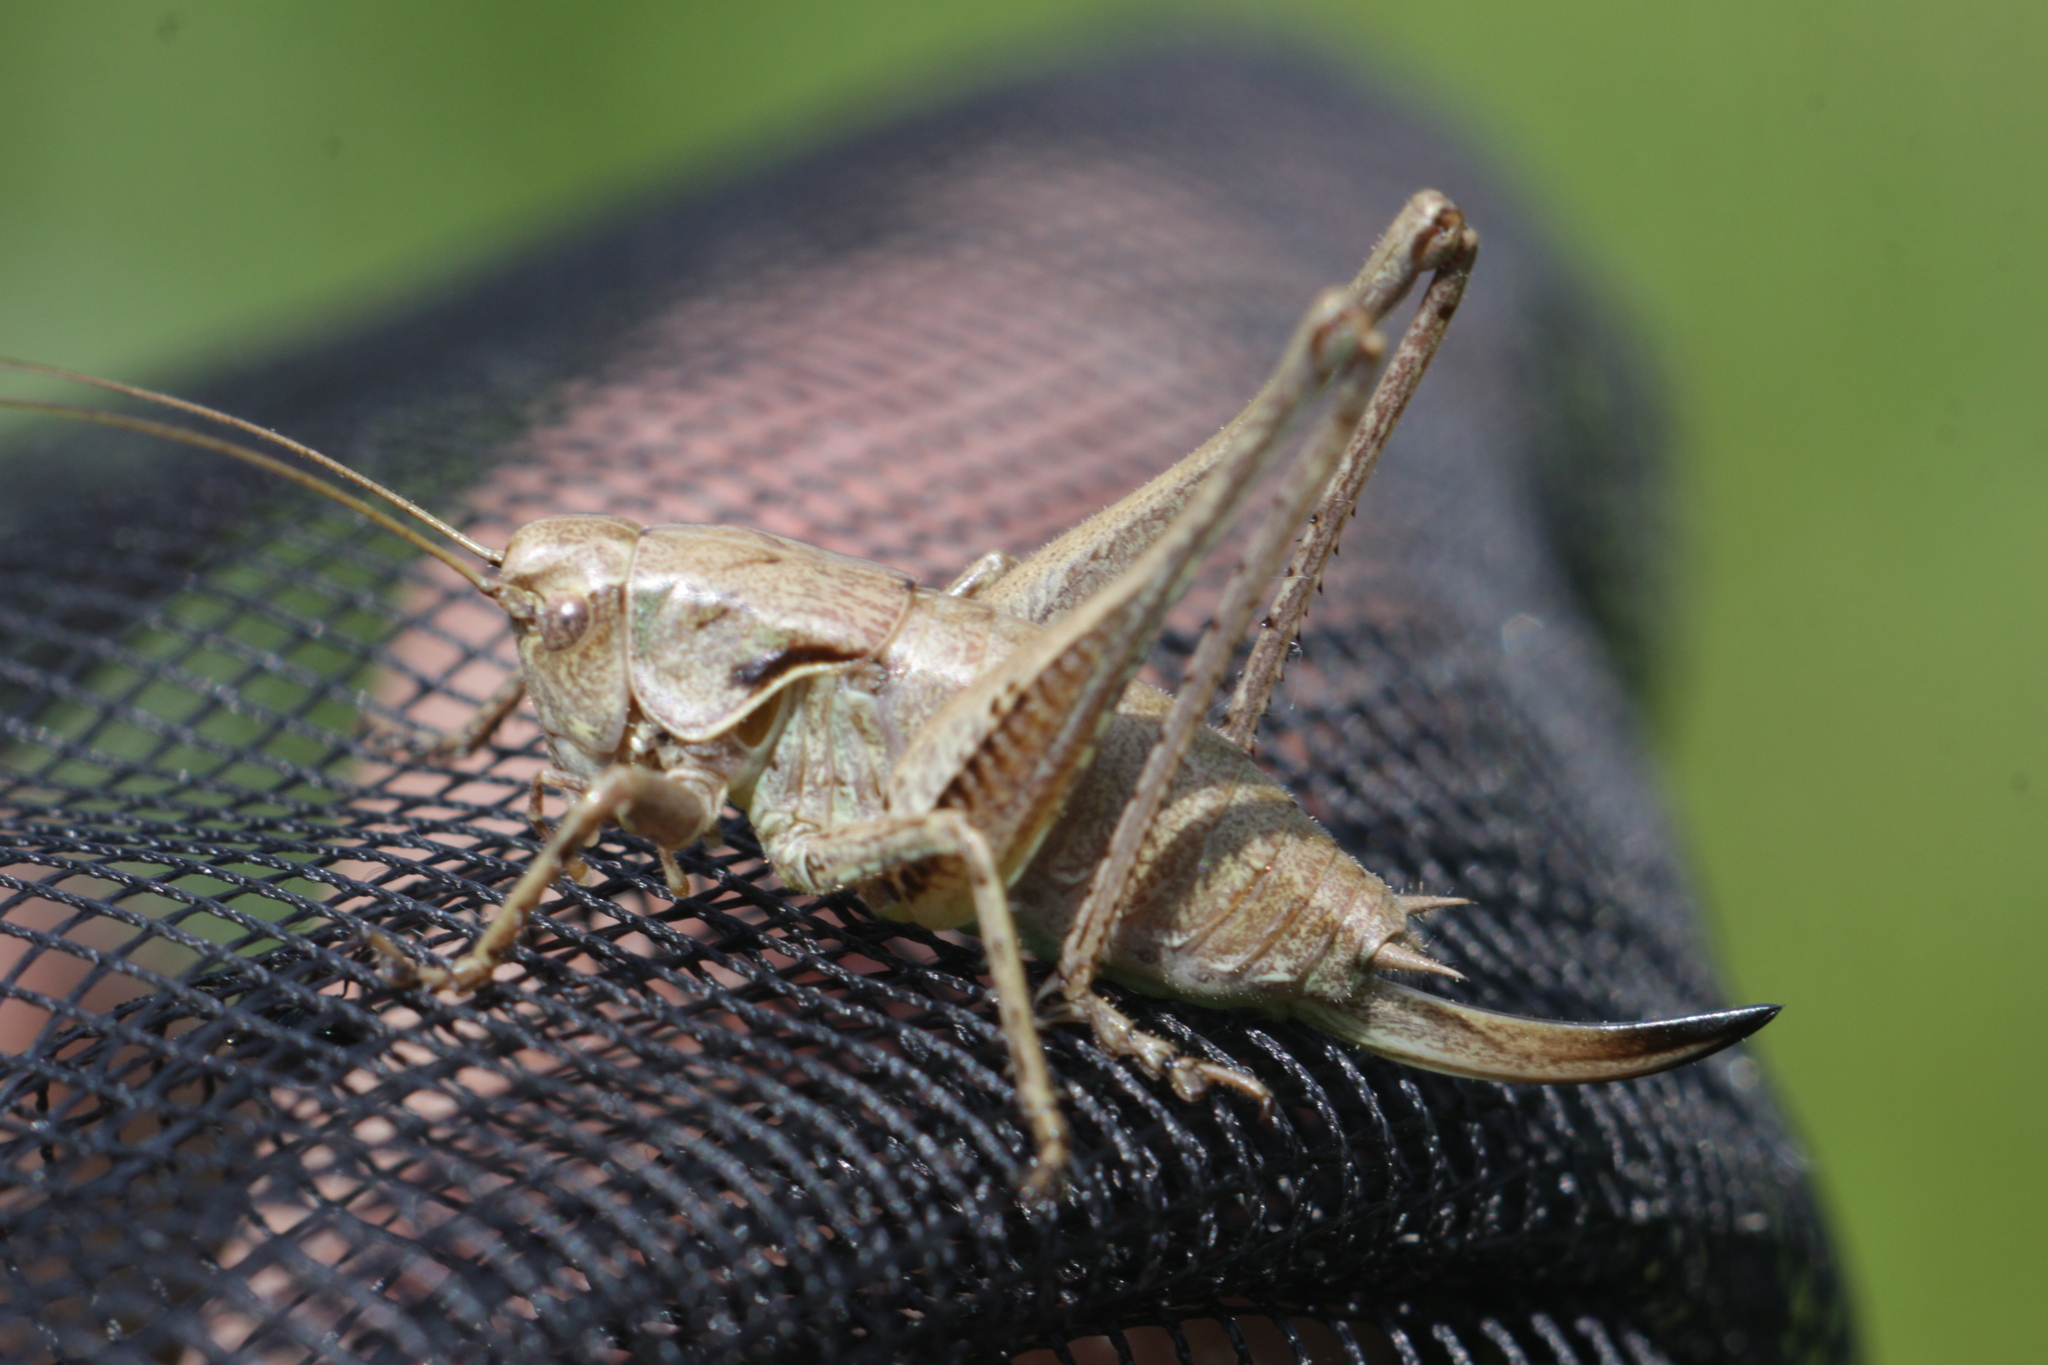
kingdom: Animalia
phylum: Arthropoda
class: Insecta
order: Orthoptera
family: Tettigoniidae
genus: Pholidoptera
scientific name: Pholidoptera griseoaptera
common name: Dark bush-cricket
